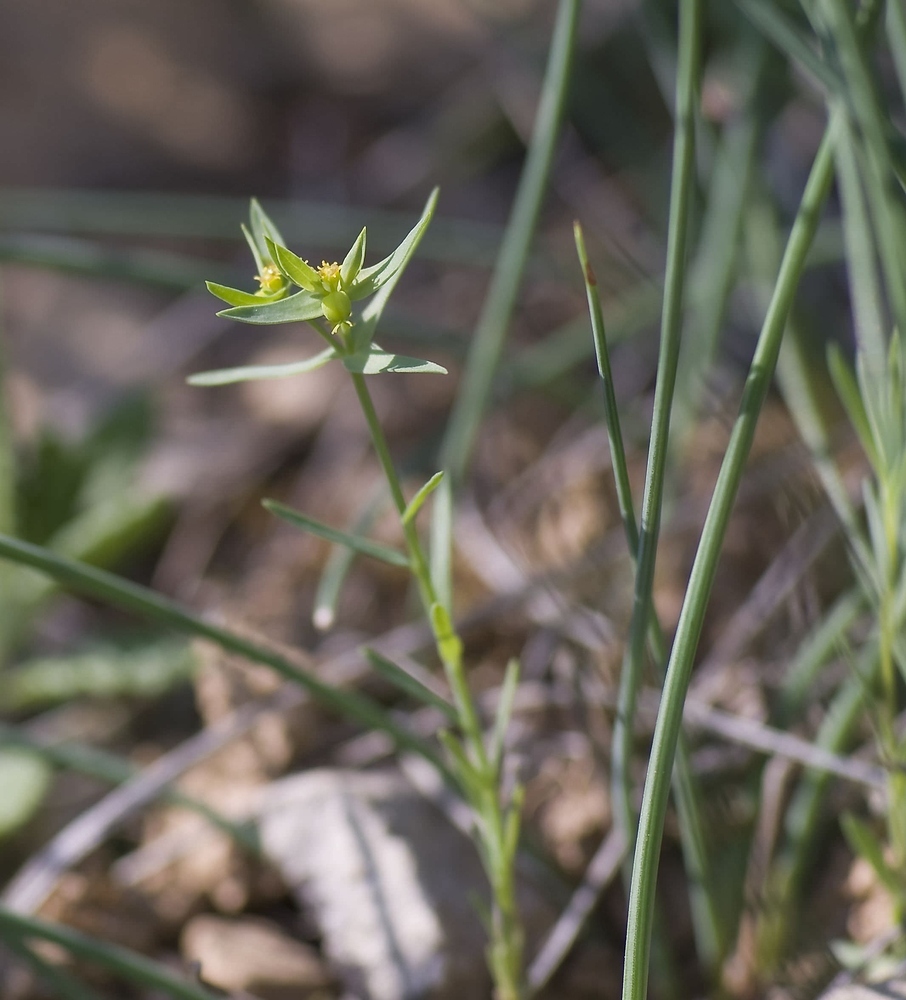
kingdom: Plantae
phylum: Tracheophyta
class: Magnoliopsida
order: Malpighiales
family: Euphorbiaceae
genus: Euphorbia
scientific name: Euphorbia exigua
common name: Dwarf spurge
